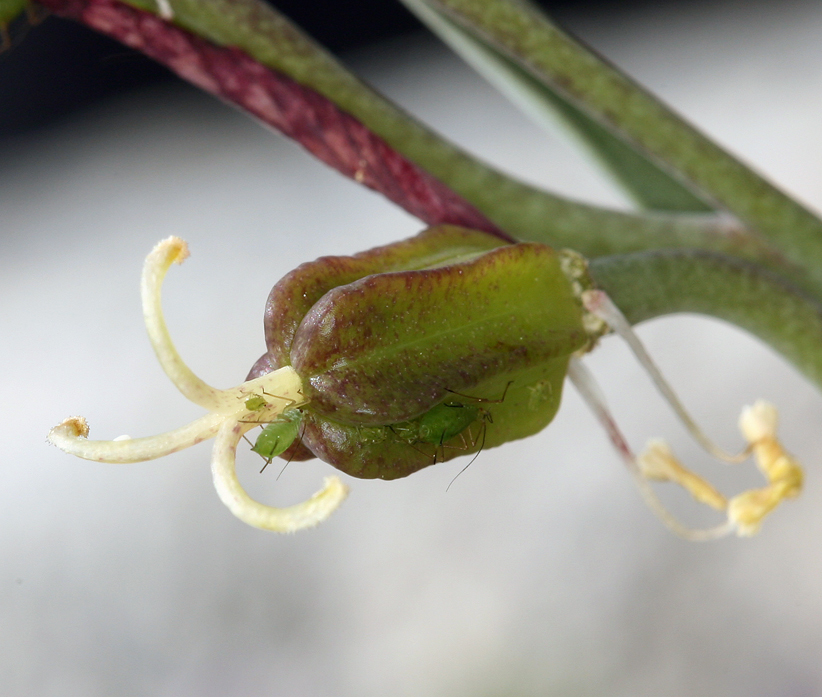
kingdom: Plantae
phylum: Tracheophyta
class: Liliopsida
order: Liliales
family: Liliaceae
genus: Fritillaria
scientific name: Fritillaria atropurpurea
